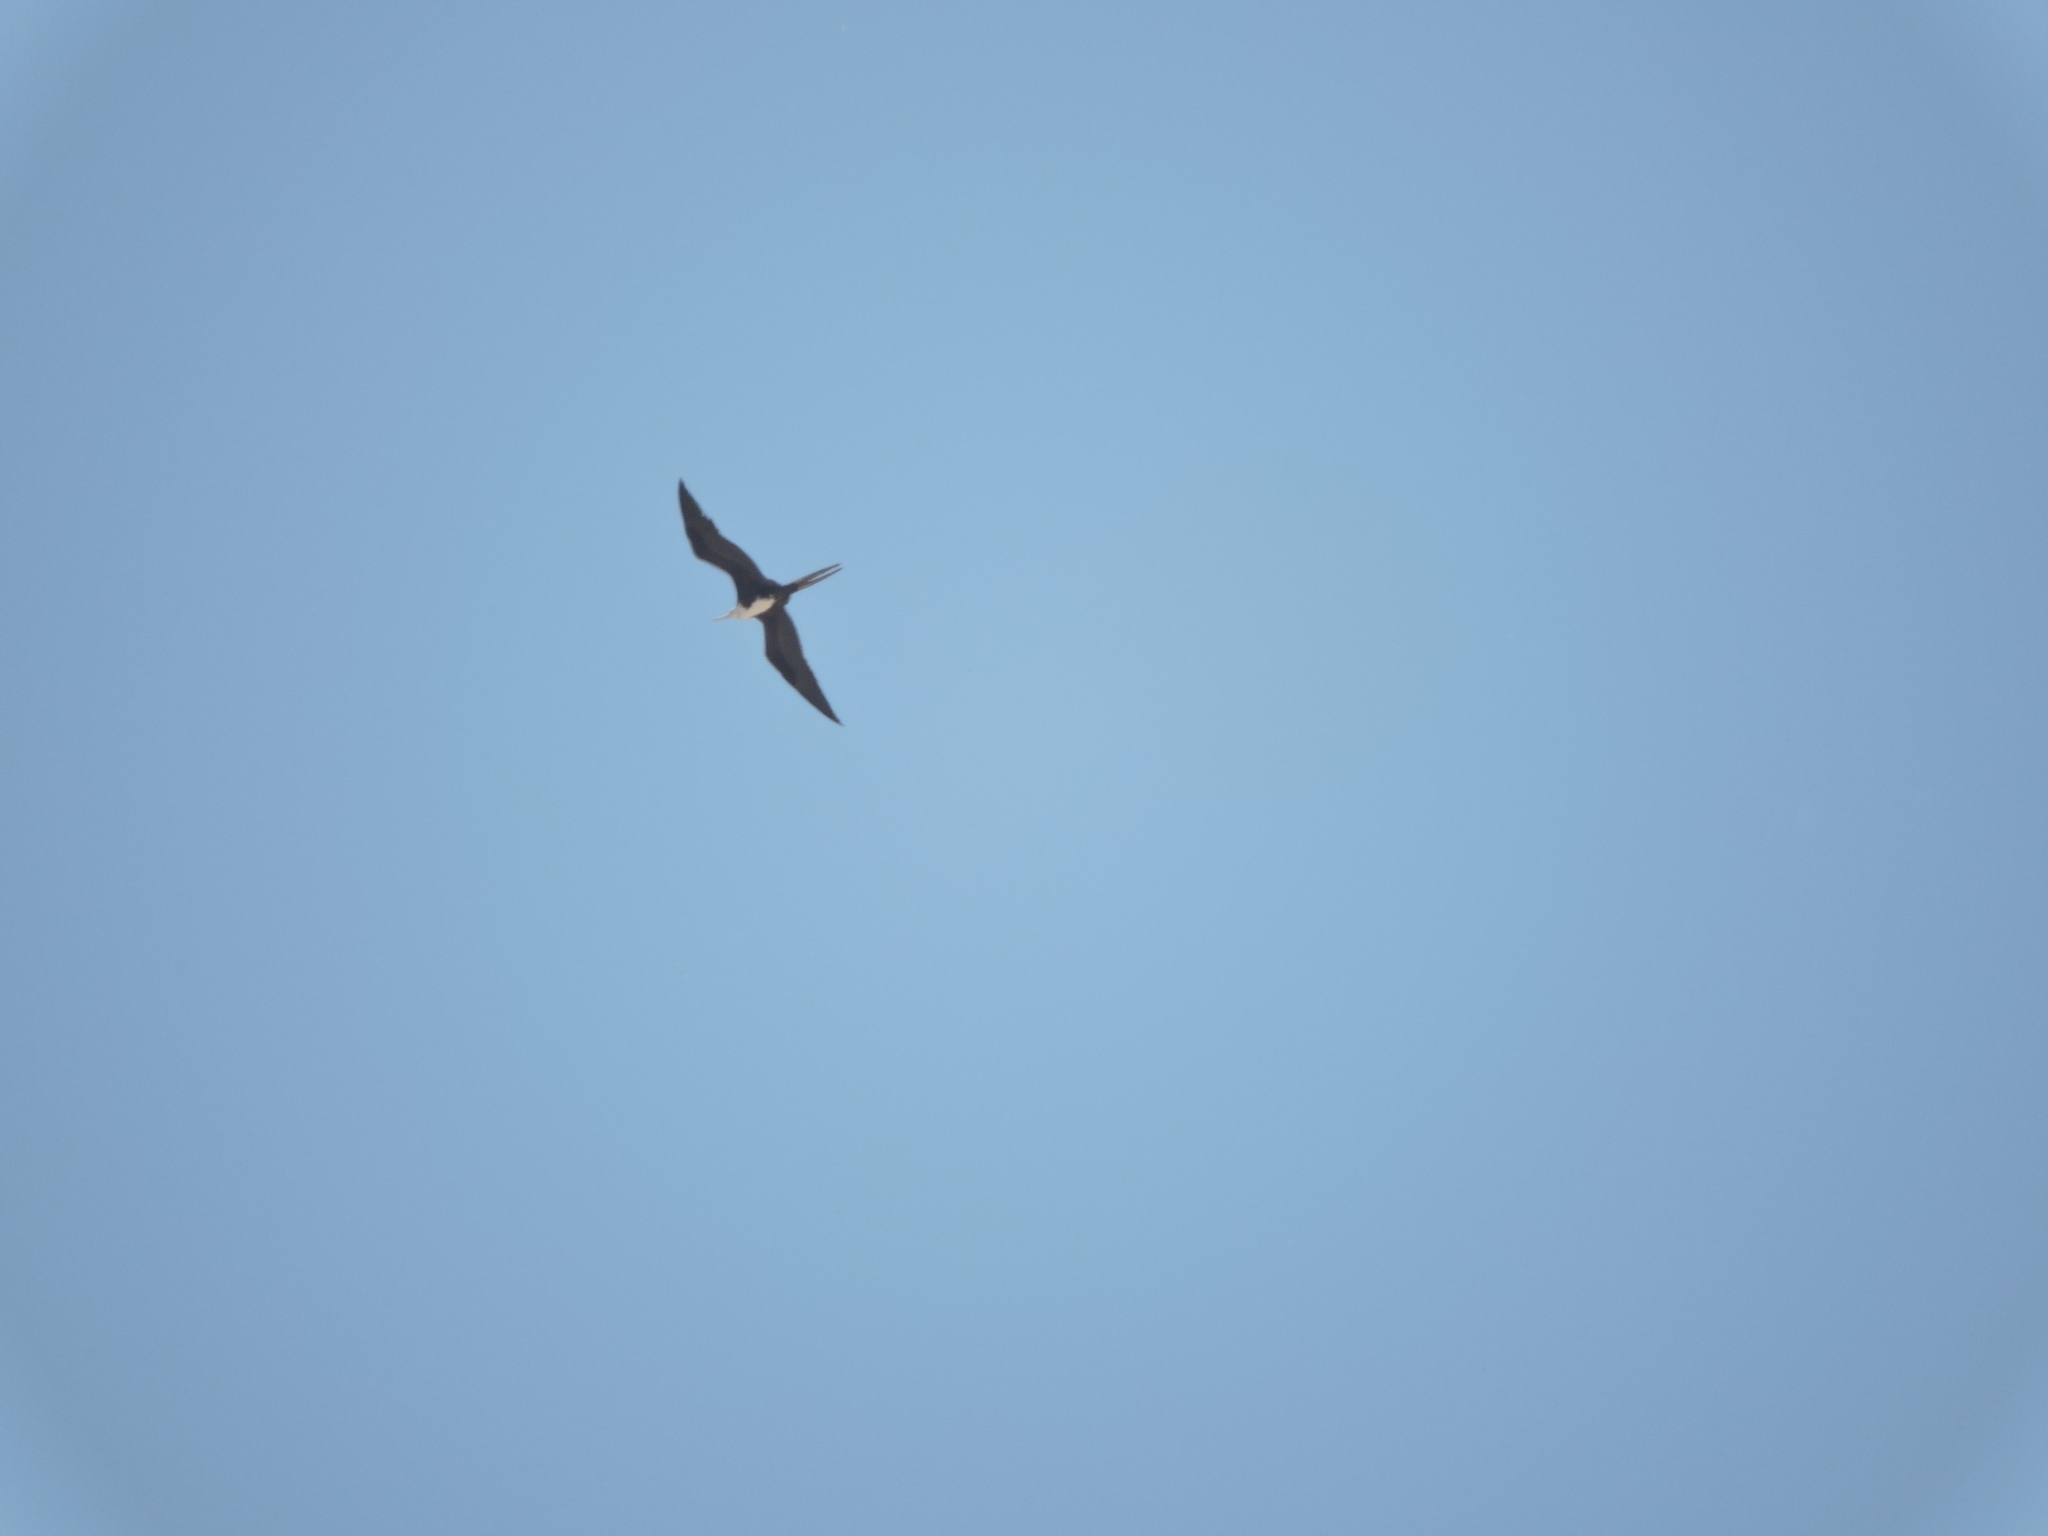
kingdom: Animalia
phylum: Chordata
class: Aves
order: Suliformes
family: Fregatidae
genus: Fregata
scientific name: Fregata magnificens
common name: Magnificent frigatebird
